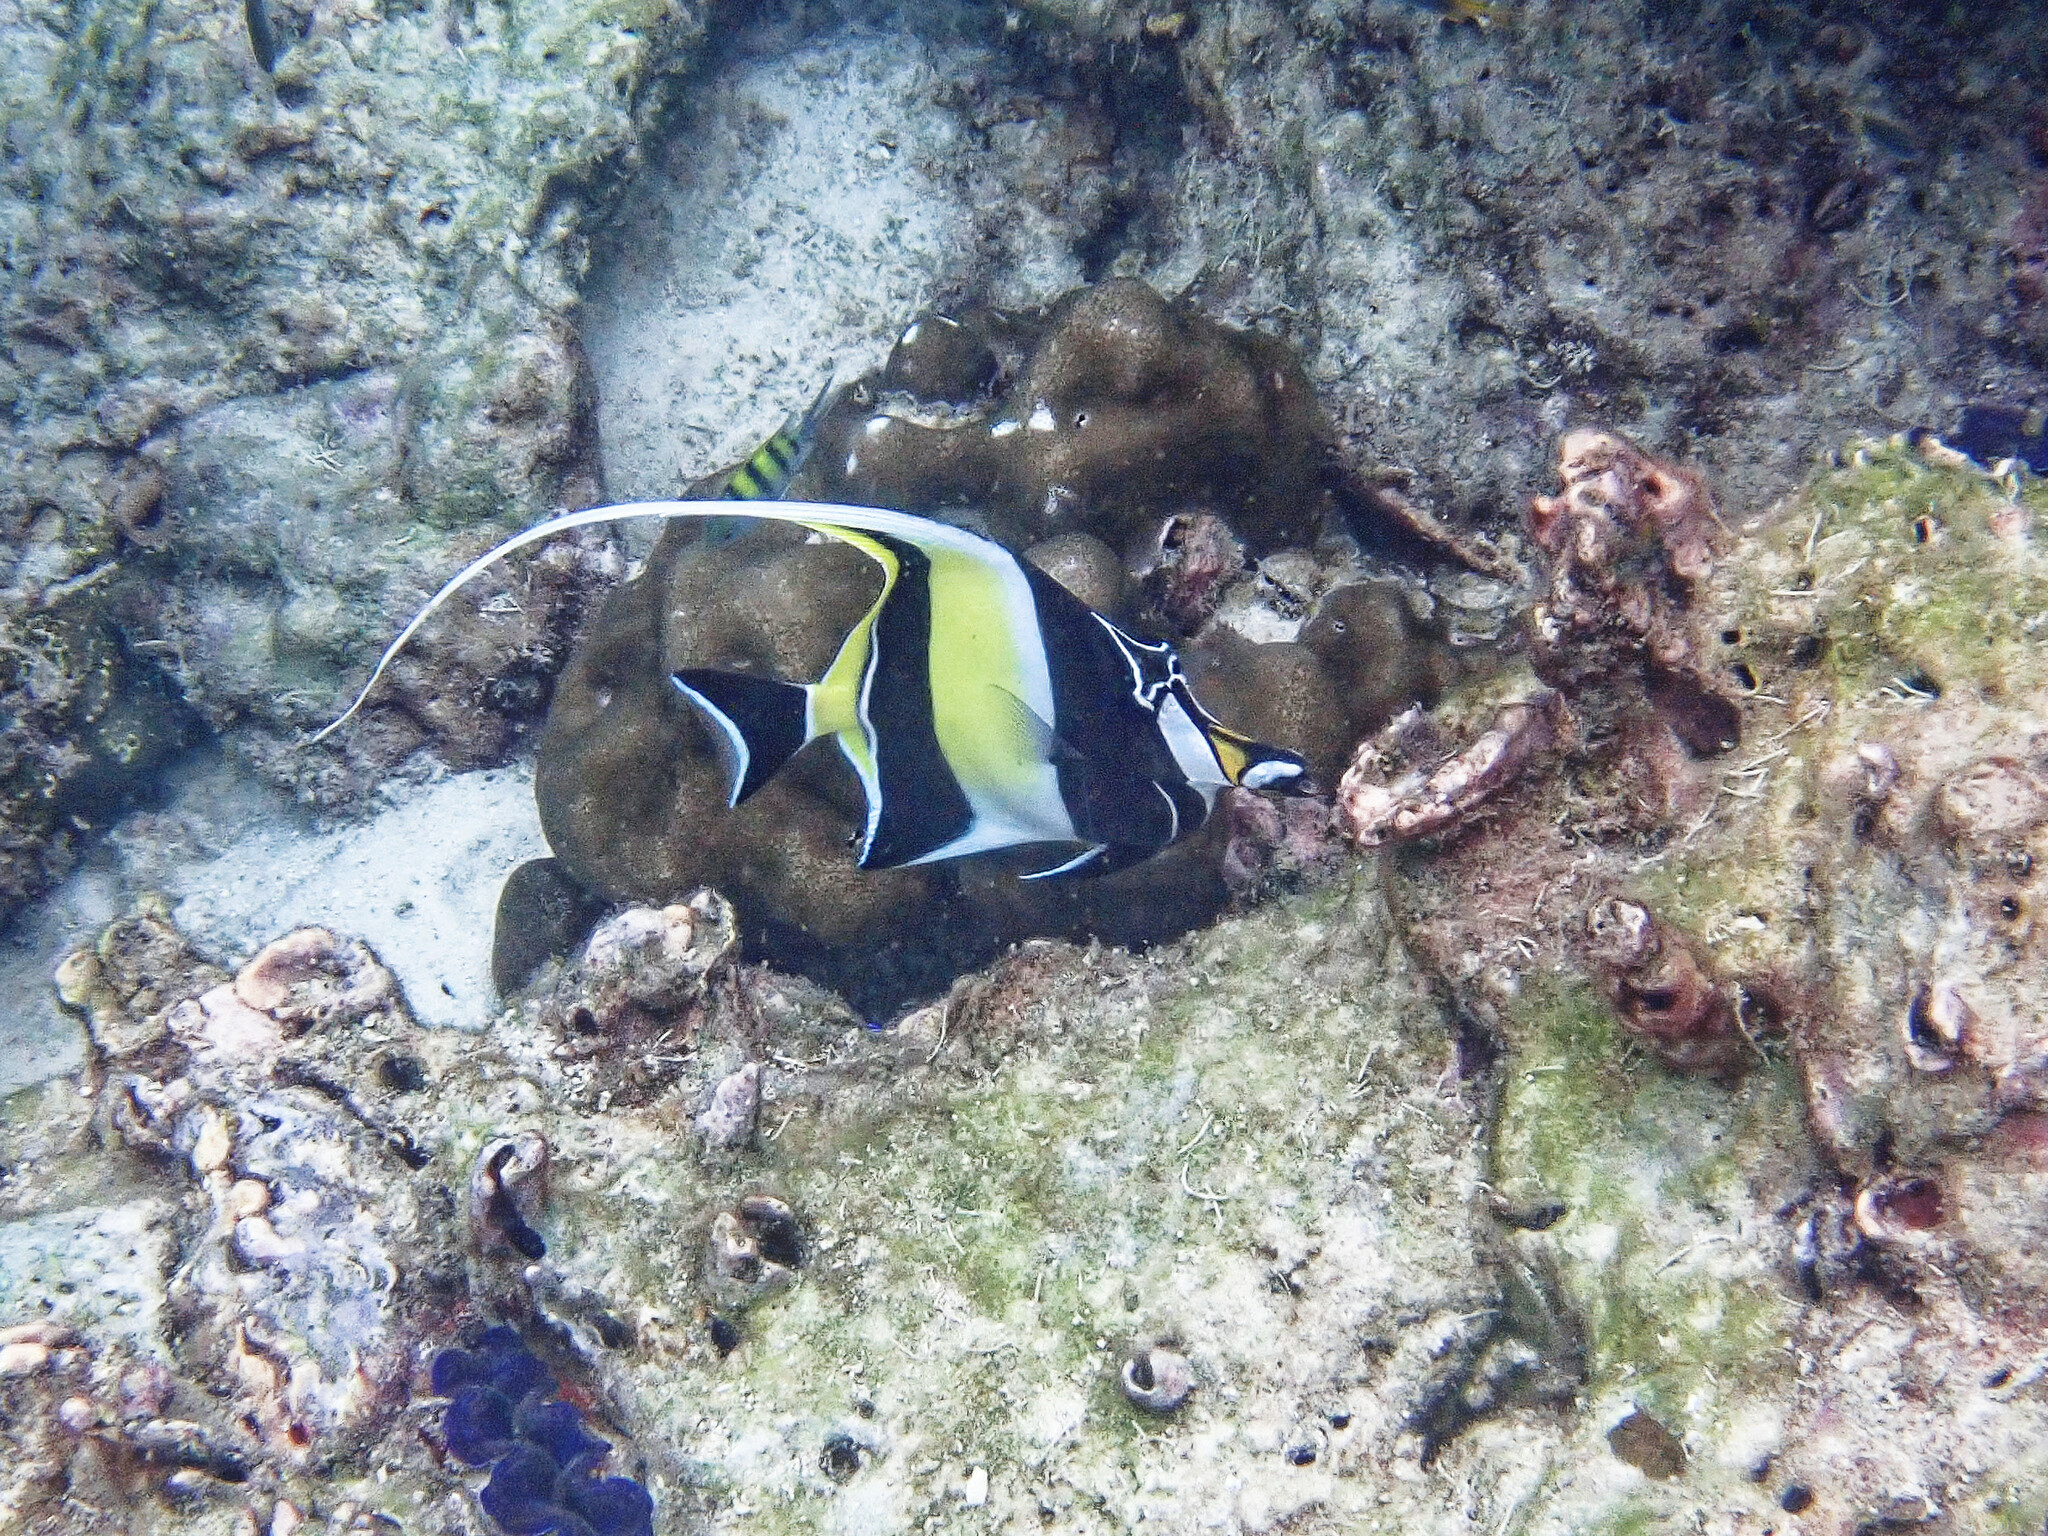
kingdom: Animalia
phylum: Chordata
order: Perciformes
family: Zanclidae
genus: Zanclus
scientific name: Zanclus cornutus
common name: Moorish idol
